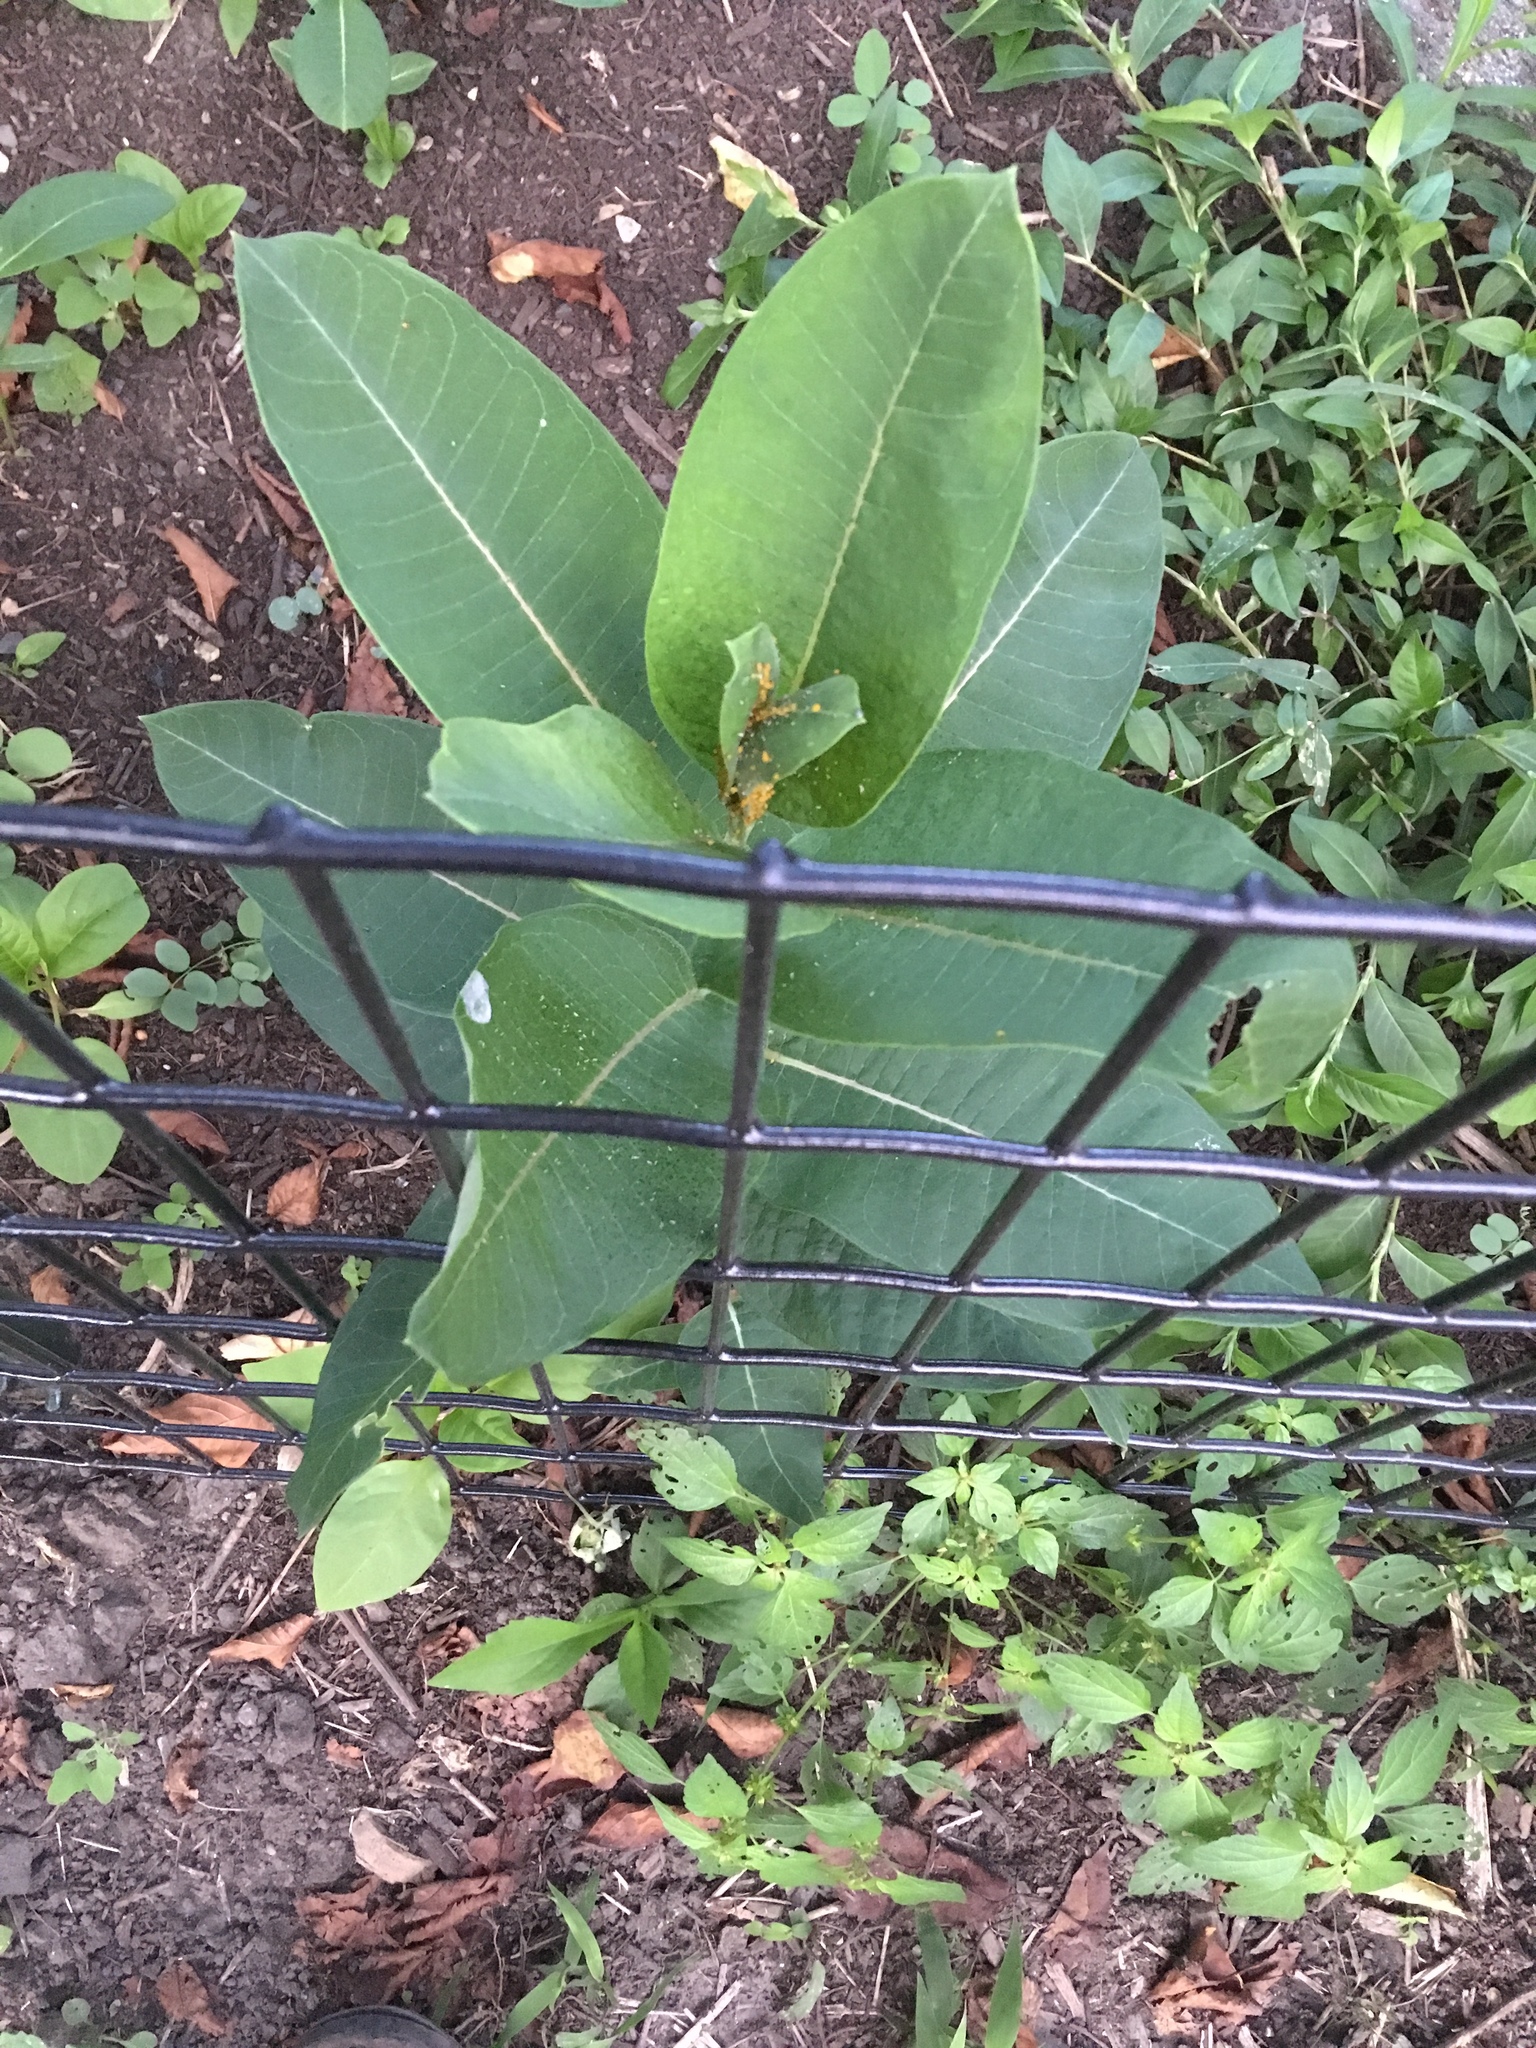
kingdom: Plantae
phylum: Tracheophyta
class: Magnoliopsida
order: Gentianales
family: Apocynaceae
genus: Asclepias
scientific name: Asclepias syriaca
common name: Common milkweed
